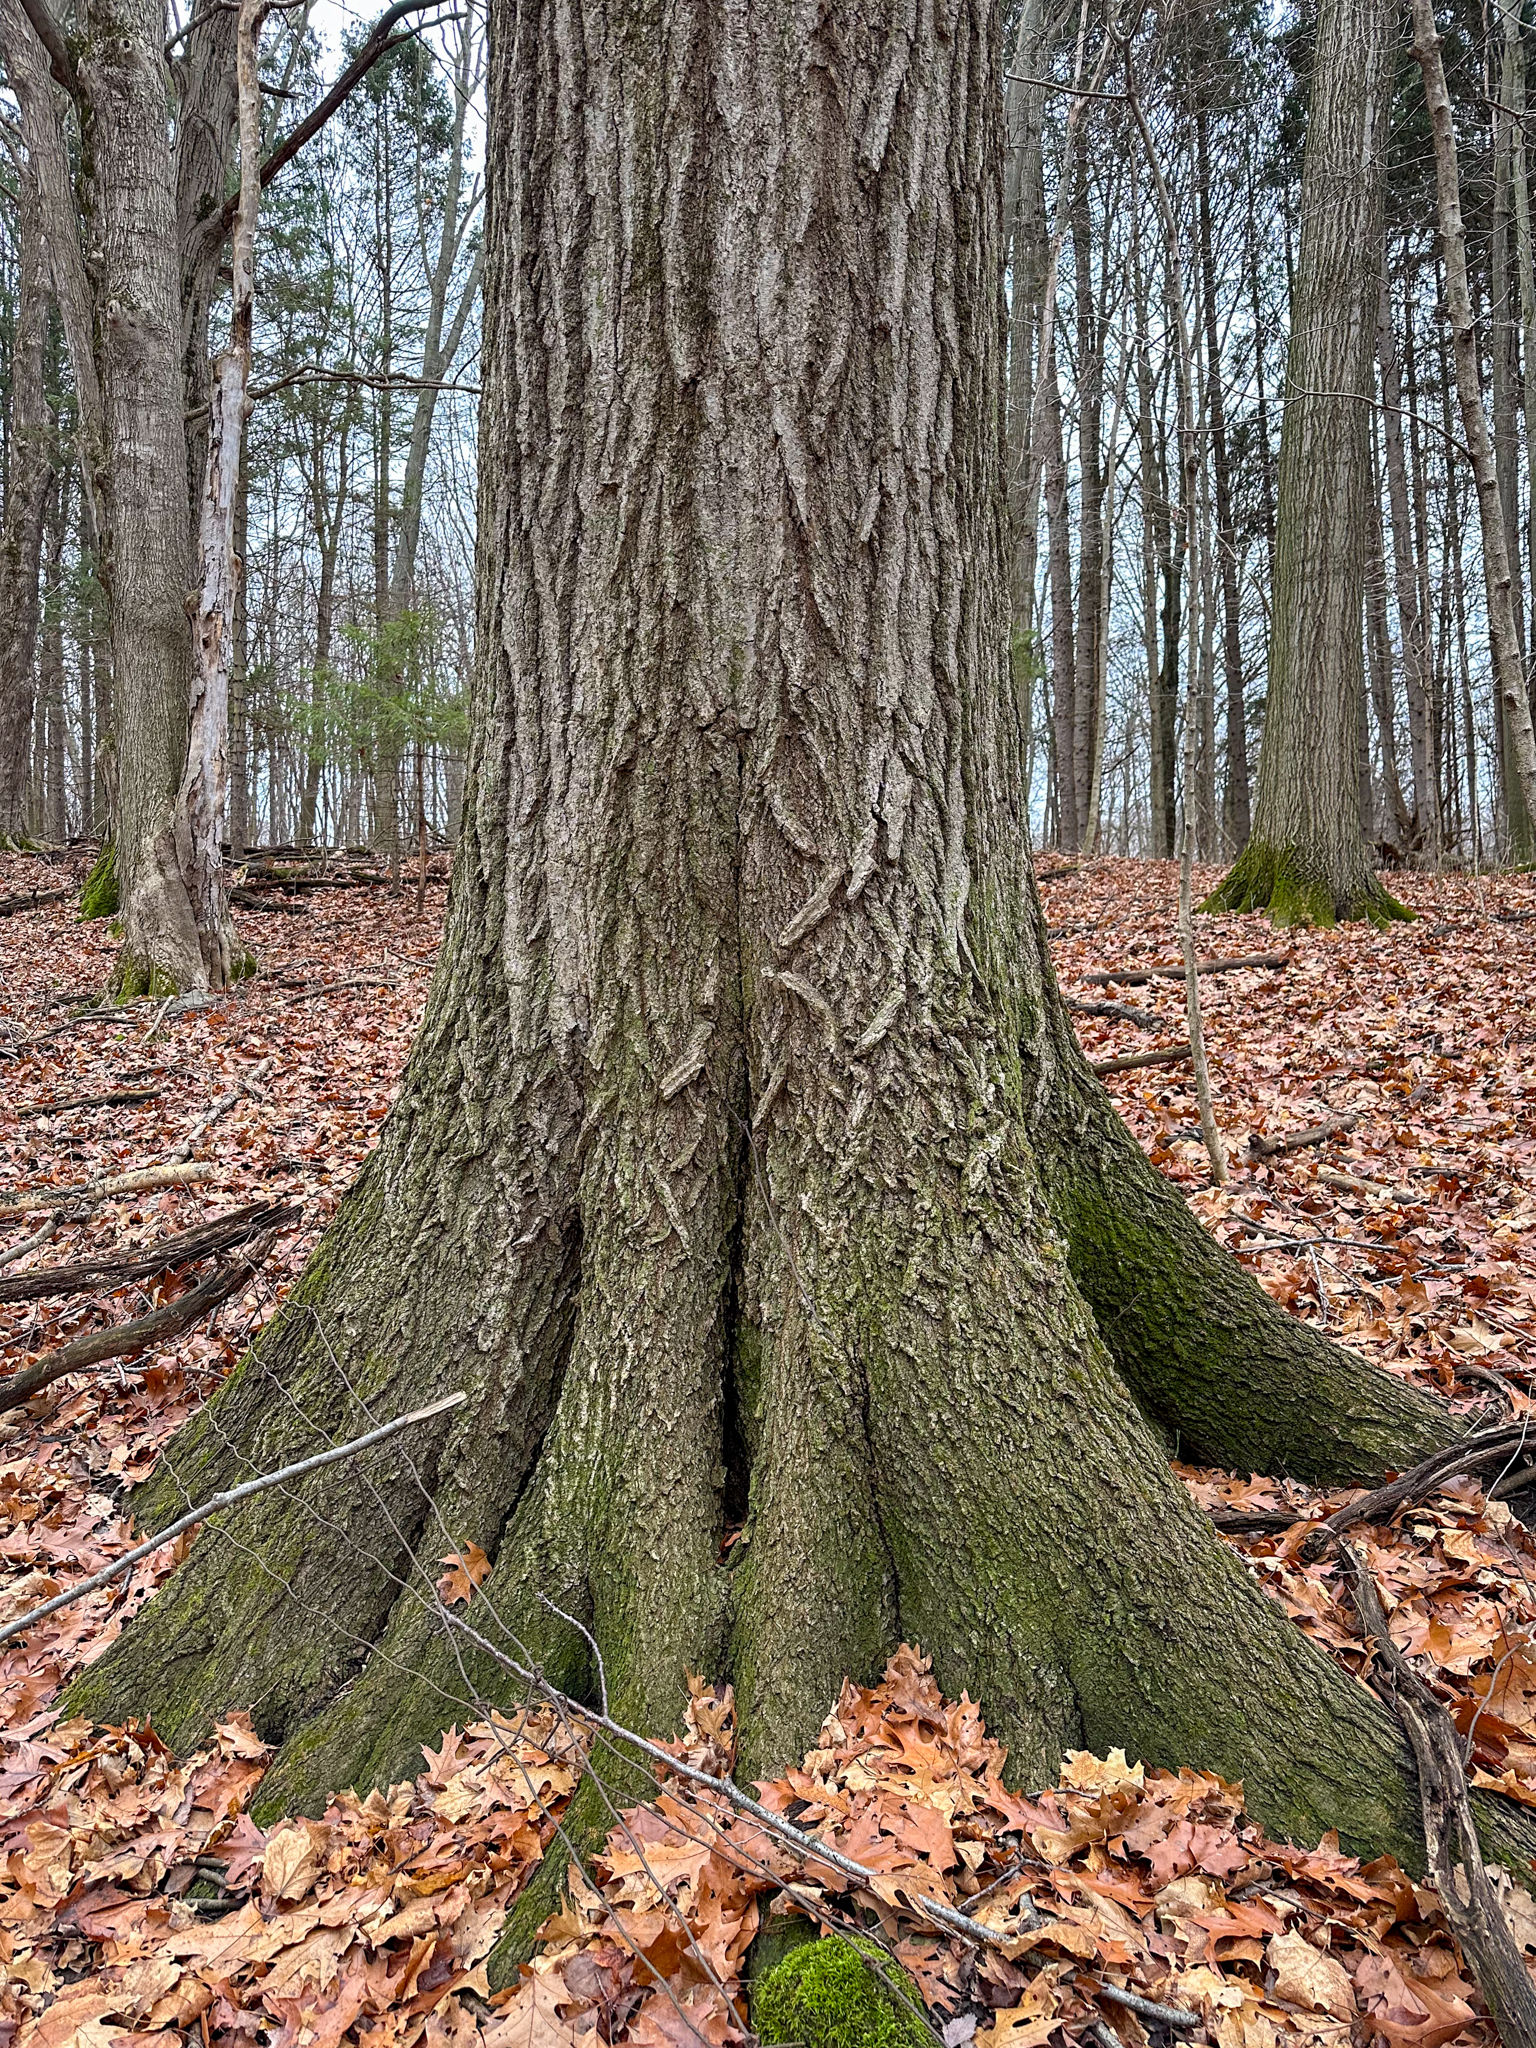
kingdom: Plantae
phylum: Tracheophyta
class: Magnoliopsida
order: Fagales
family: Fagaceae
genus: Quercus
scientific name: Quercus rubra
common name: Red oak
